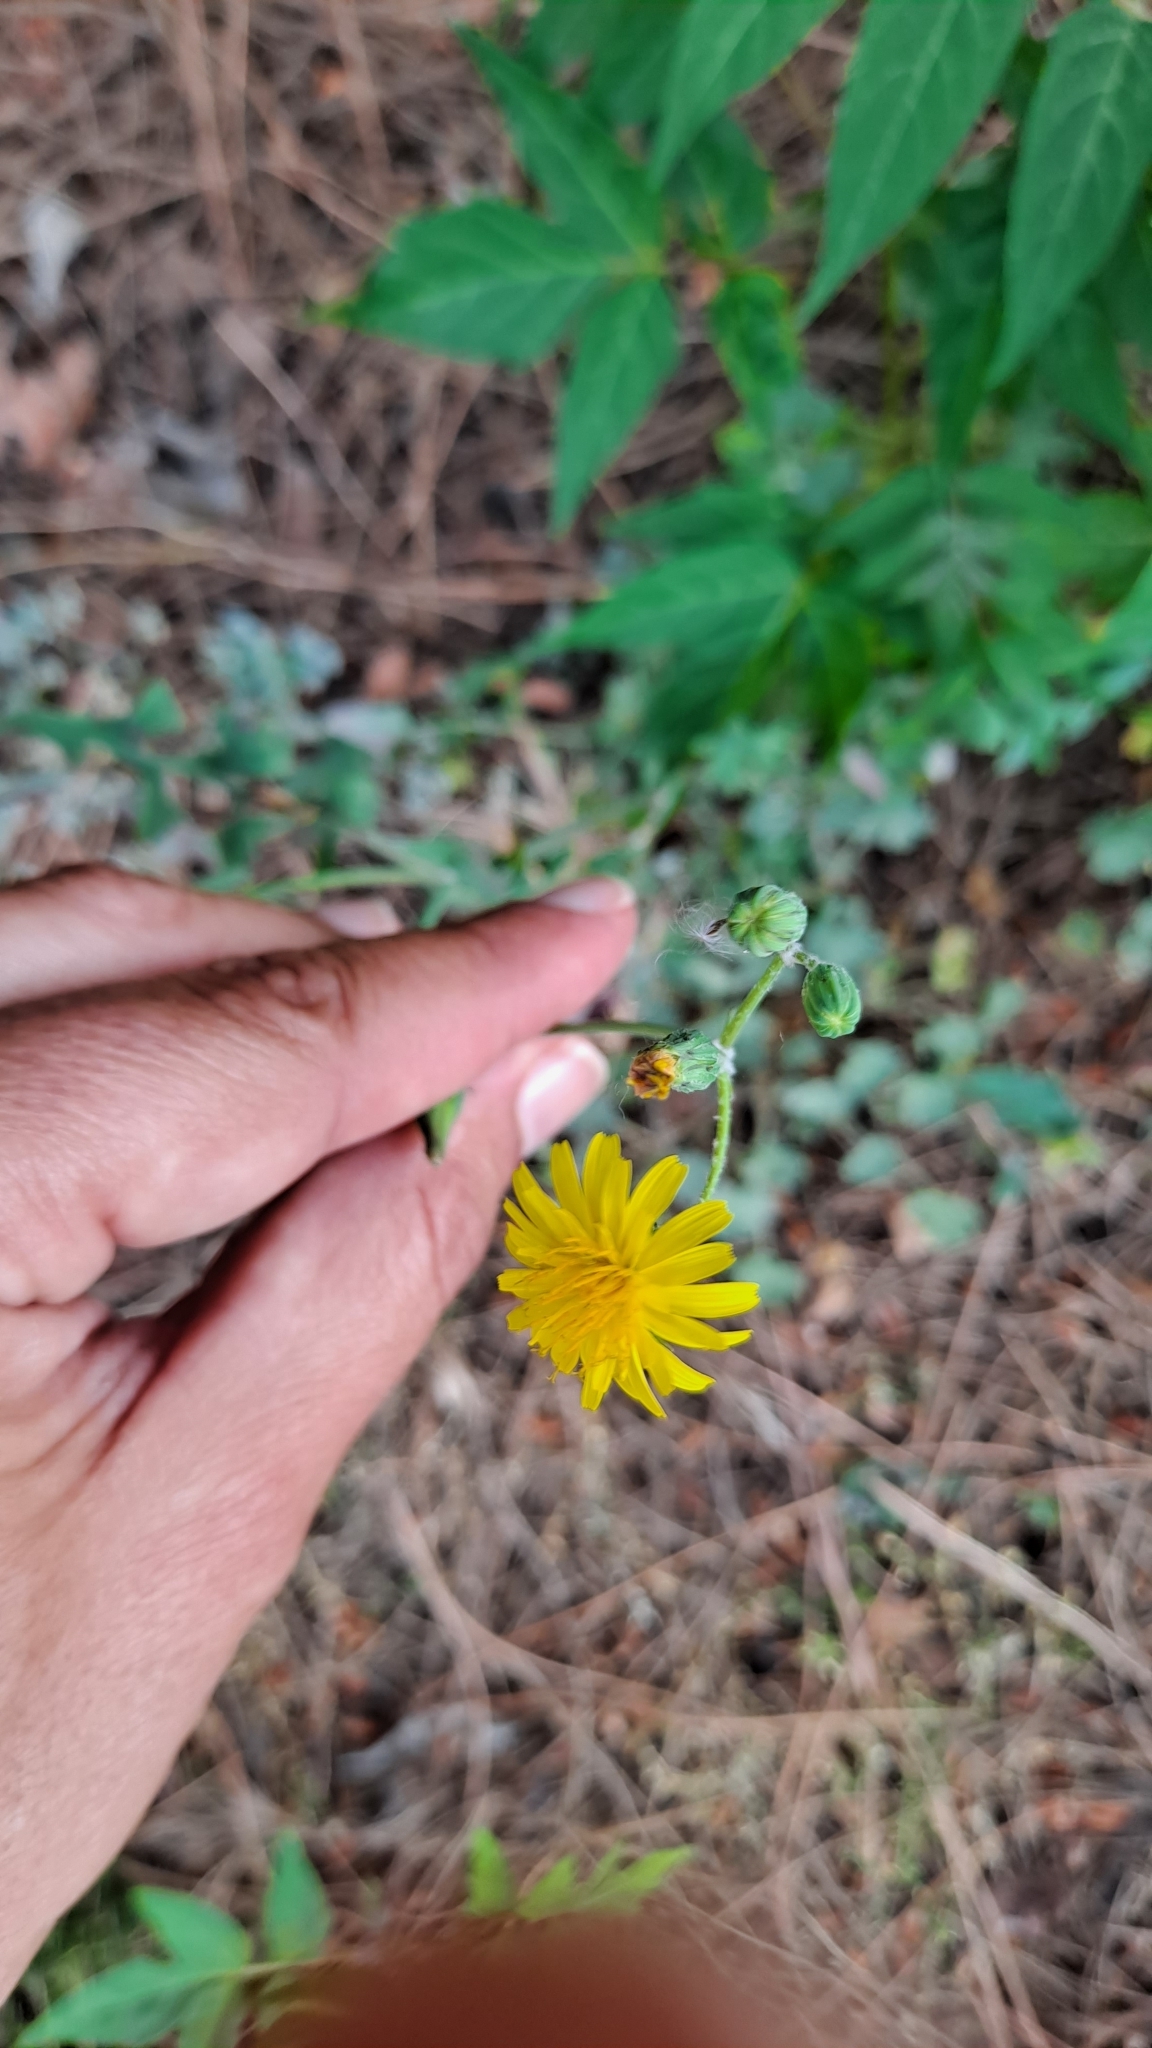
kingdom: Plantae
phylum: Tracheophyta
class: Magnoliopsida
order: Asterales
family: Asteraceae
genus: Sonchus
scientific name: Sonchus tenerrimus
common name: Clammy sowthistle
